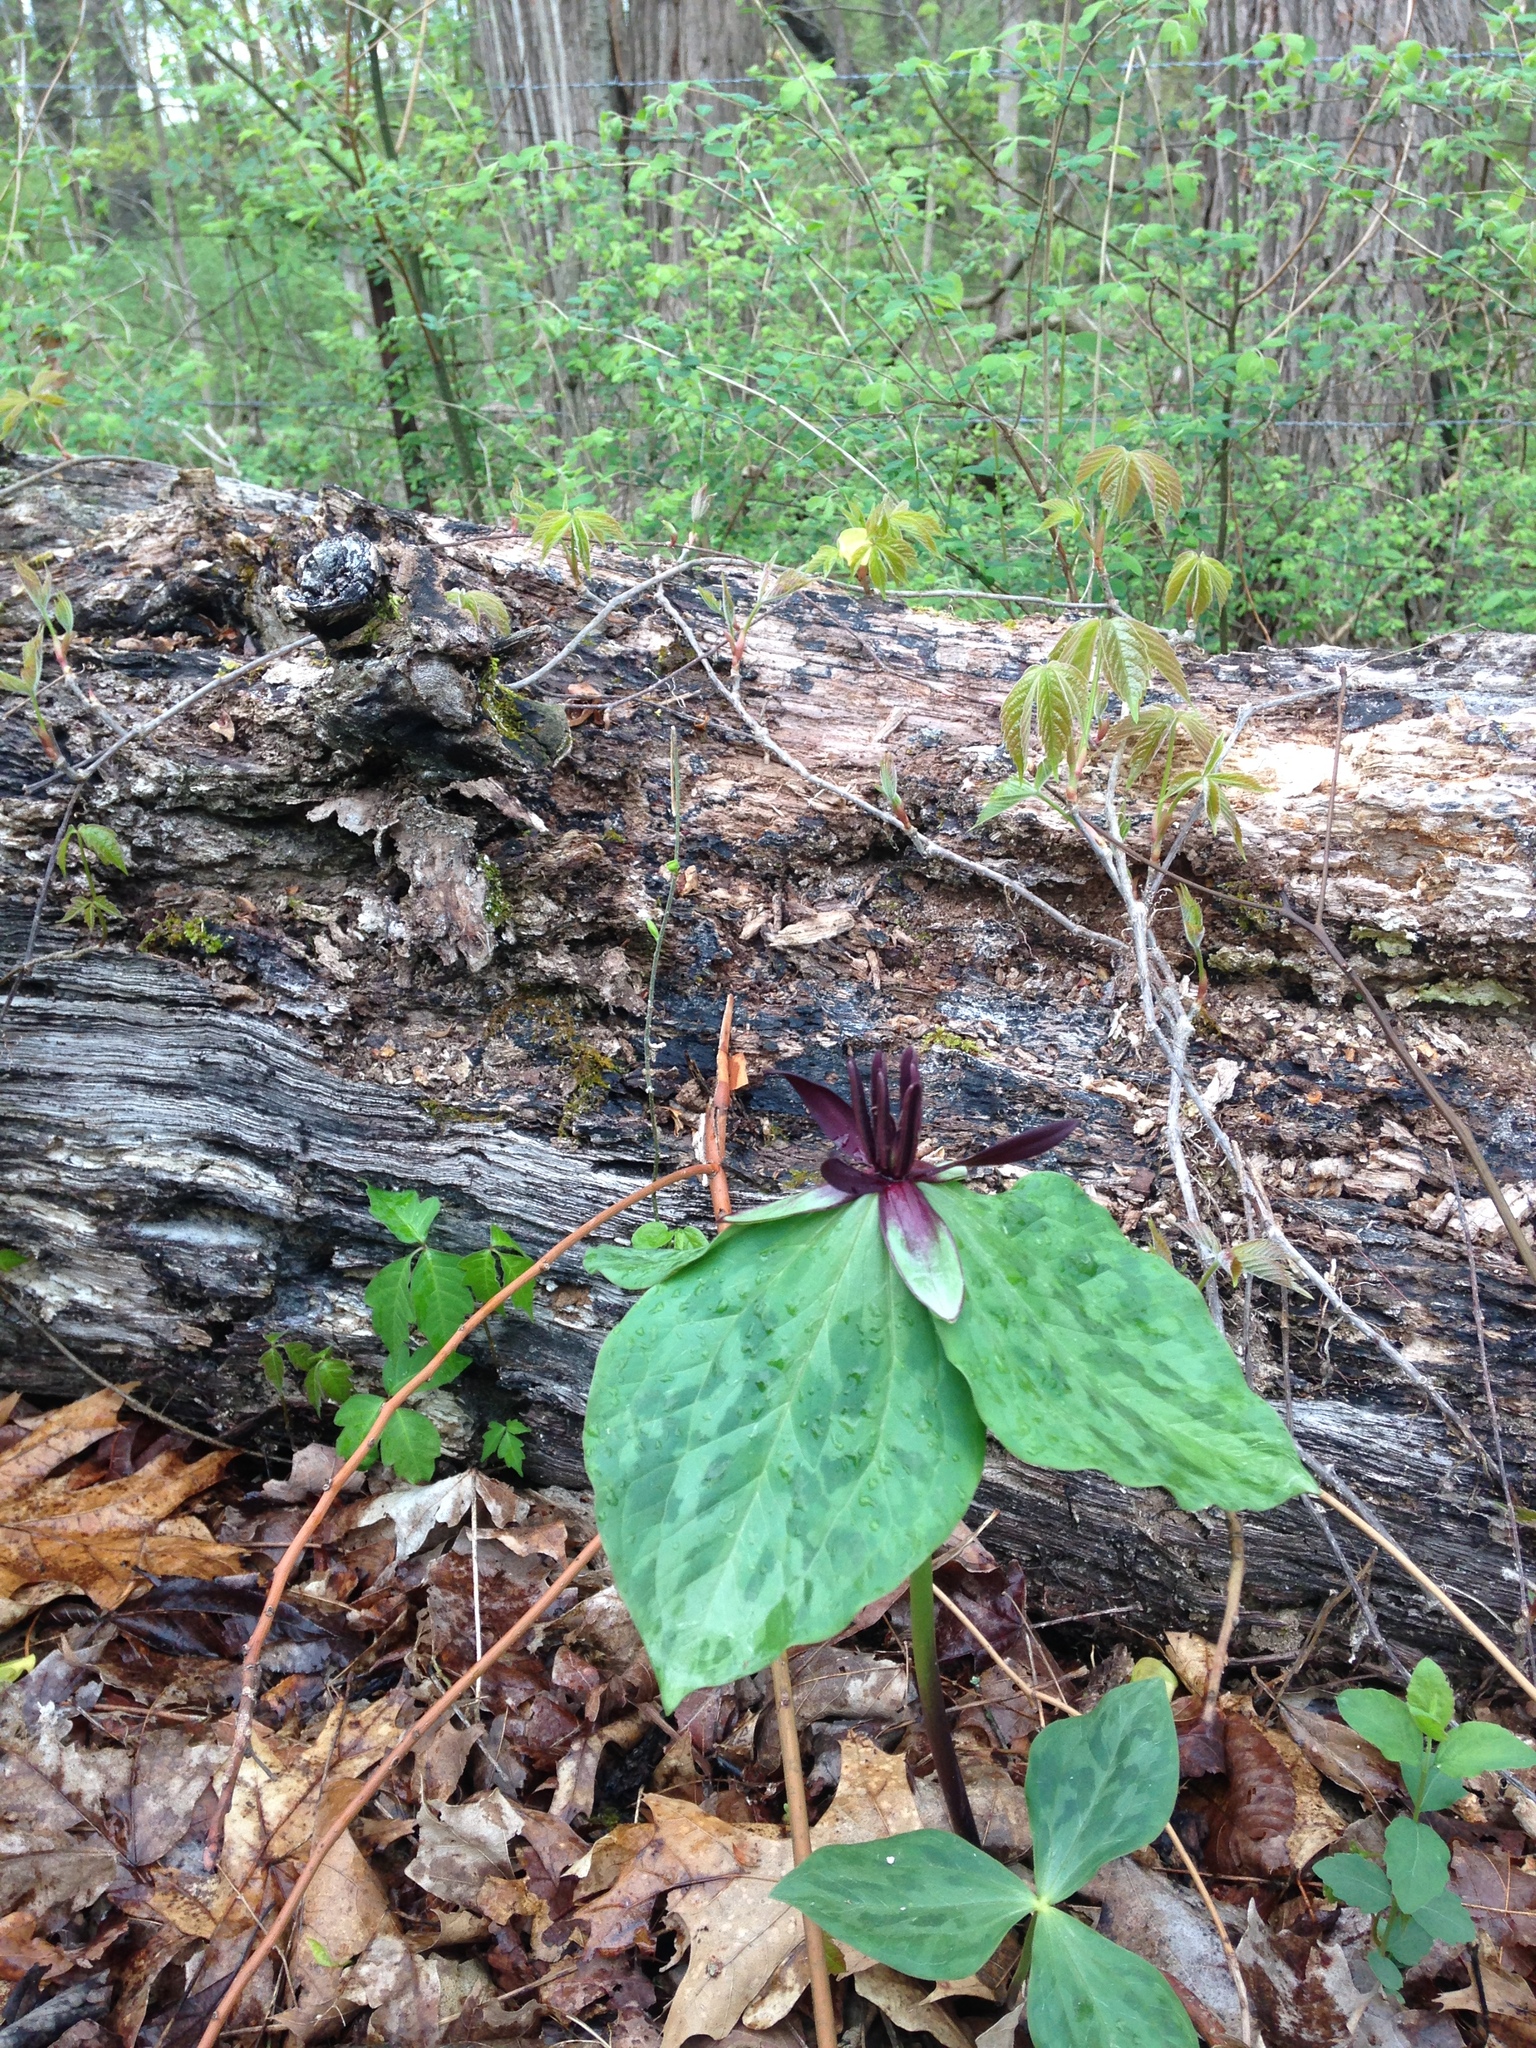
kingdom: Plantae
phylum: Tracheophyta
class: Liliopsida
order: Liliales
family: Melanthiaceae
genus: Trillium
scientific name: Trillium stamineum
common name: Blue ridge wakerobin
